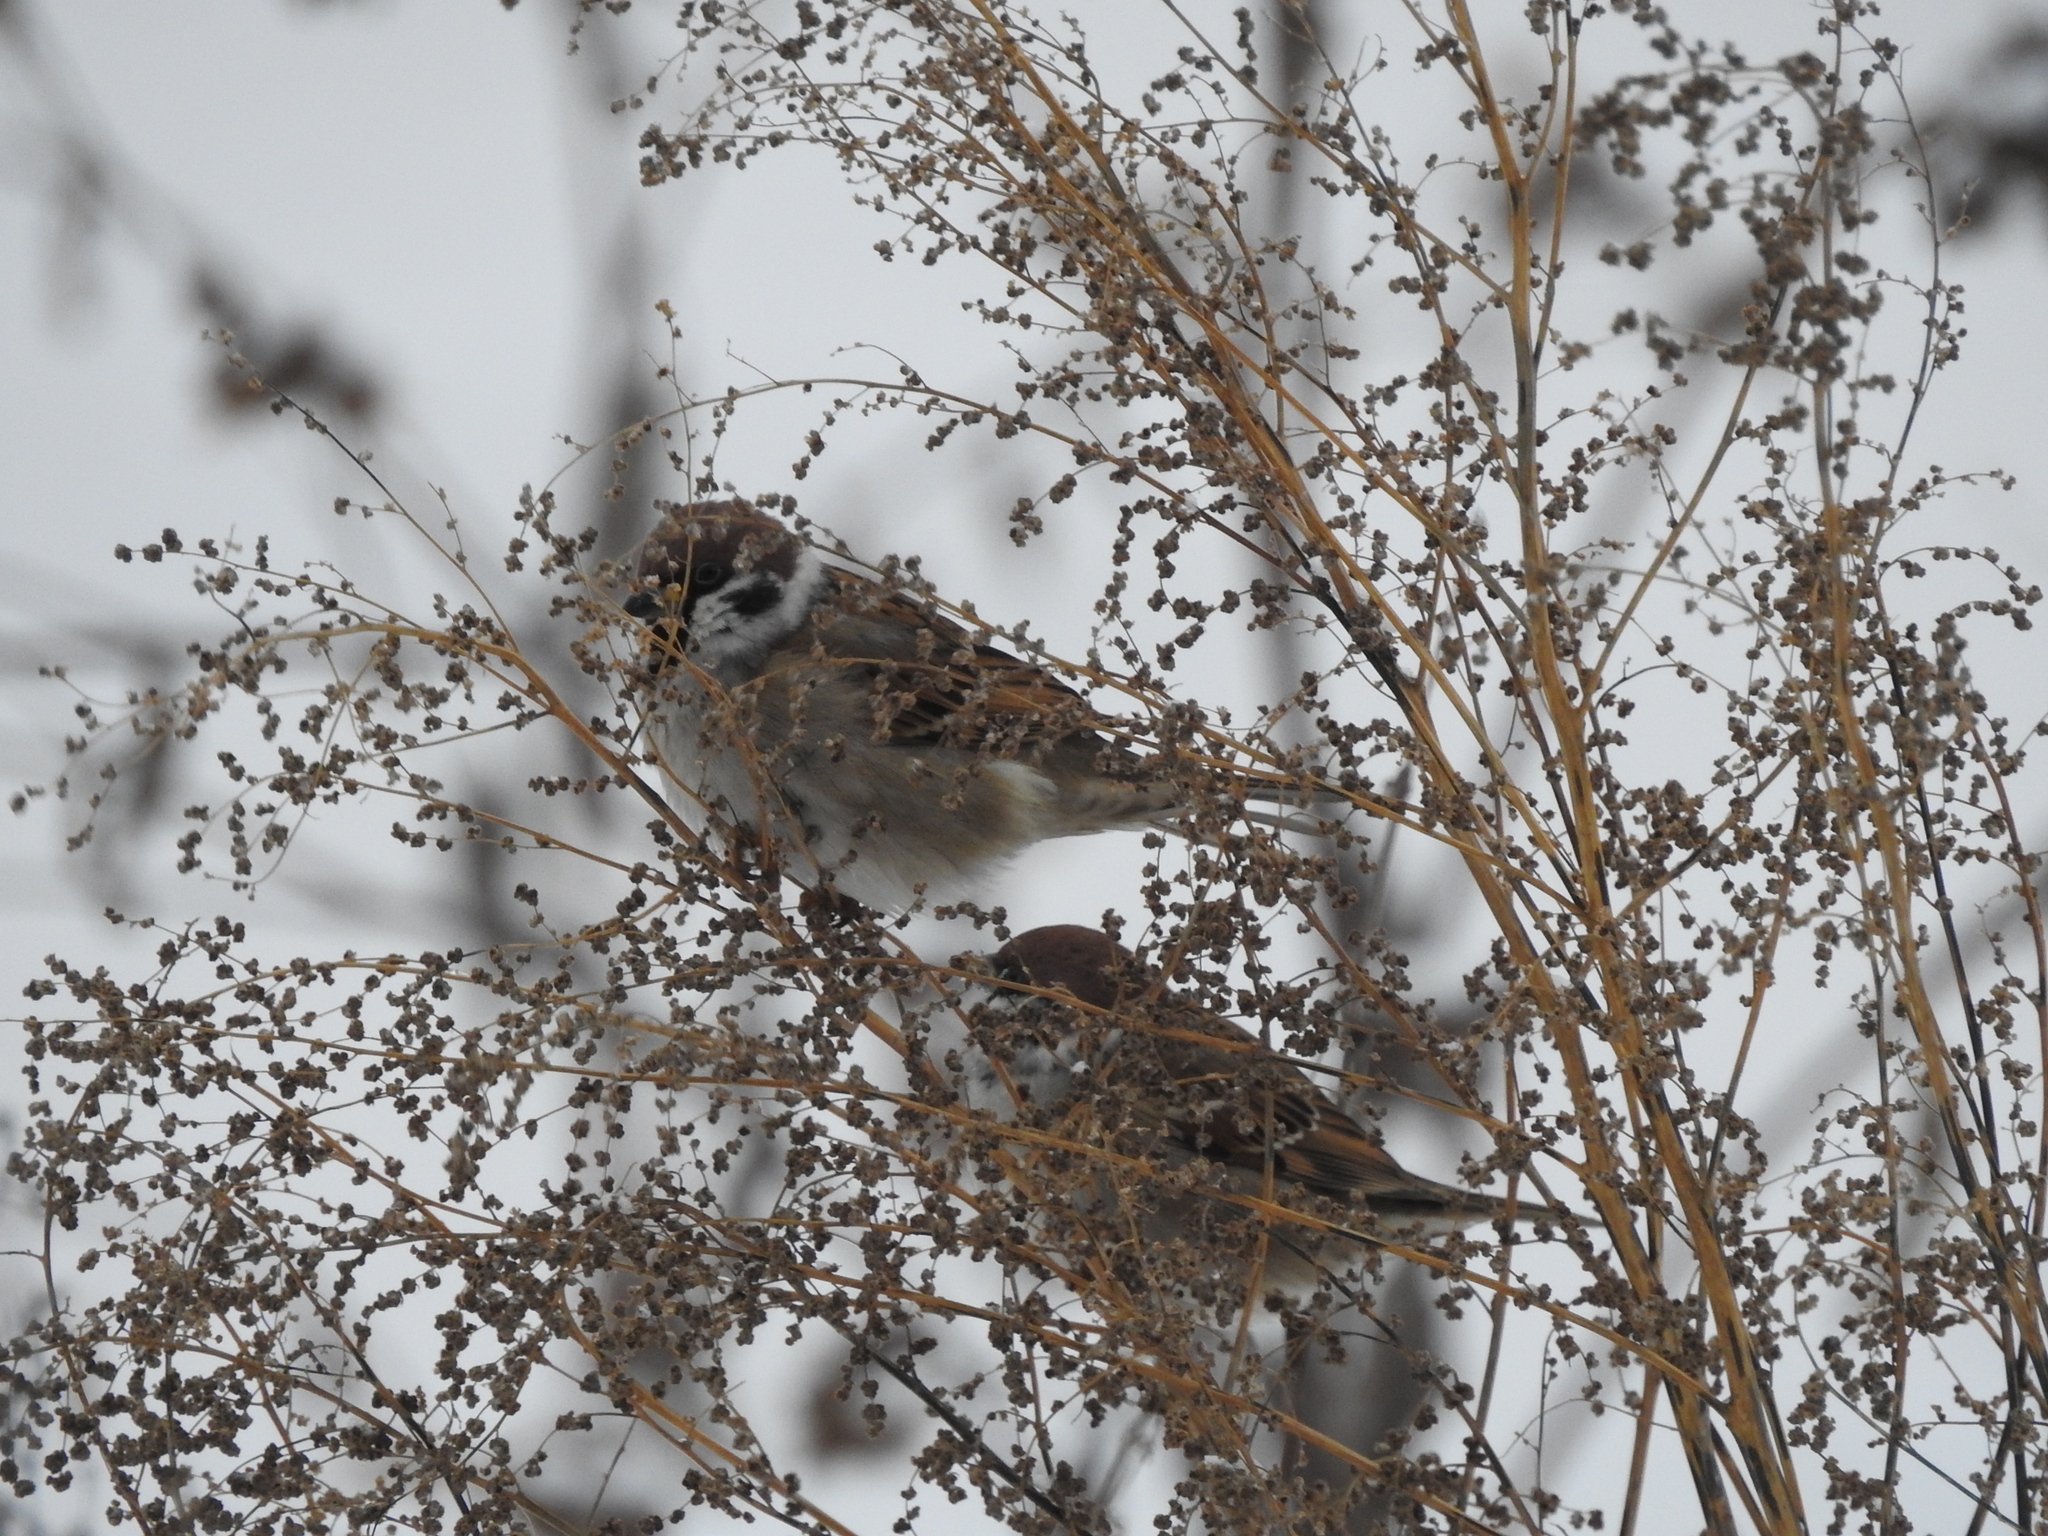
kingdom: Animalia
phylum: Chordata
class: Aves
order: Passeriformes
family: Passeridae
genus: Passer
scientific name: Passer montanus
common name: Eurasian tree sparrow
